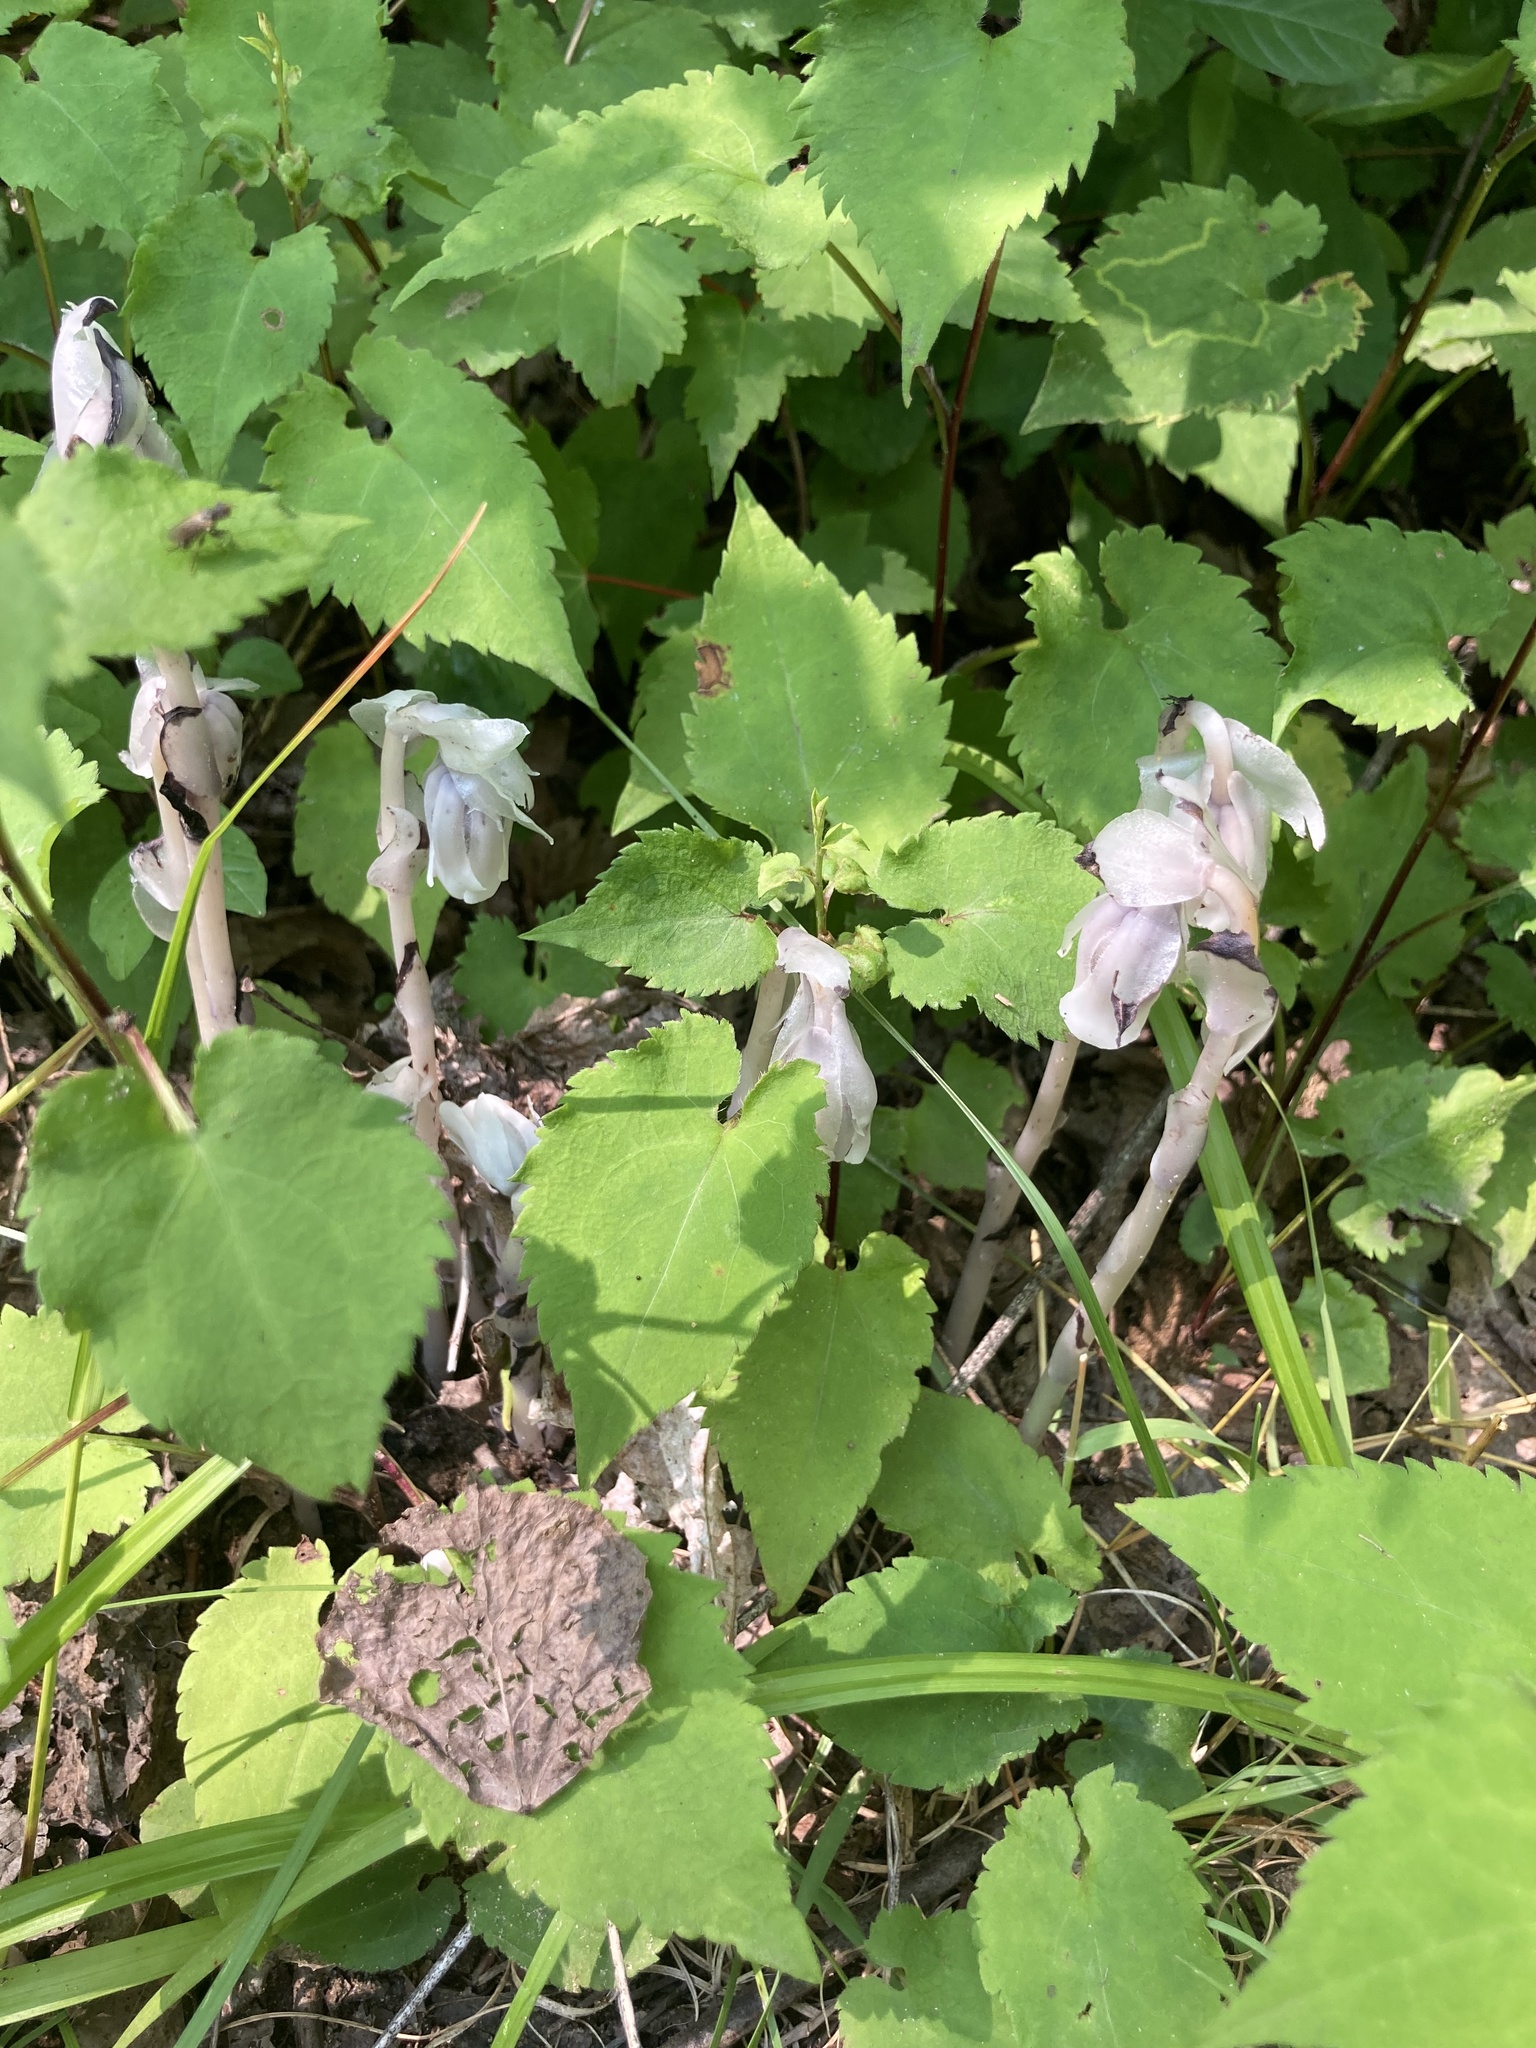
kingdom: Plantae
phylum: Tracheophyta
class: Magnoliopsida
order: Ericales
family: Ericaceae
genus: Monotropa
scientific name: Monotropa uniflora
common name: Convulsion root
